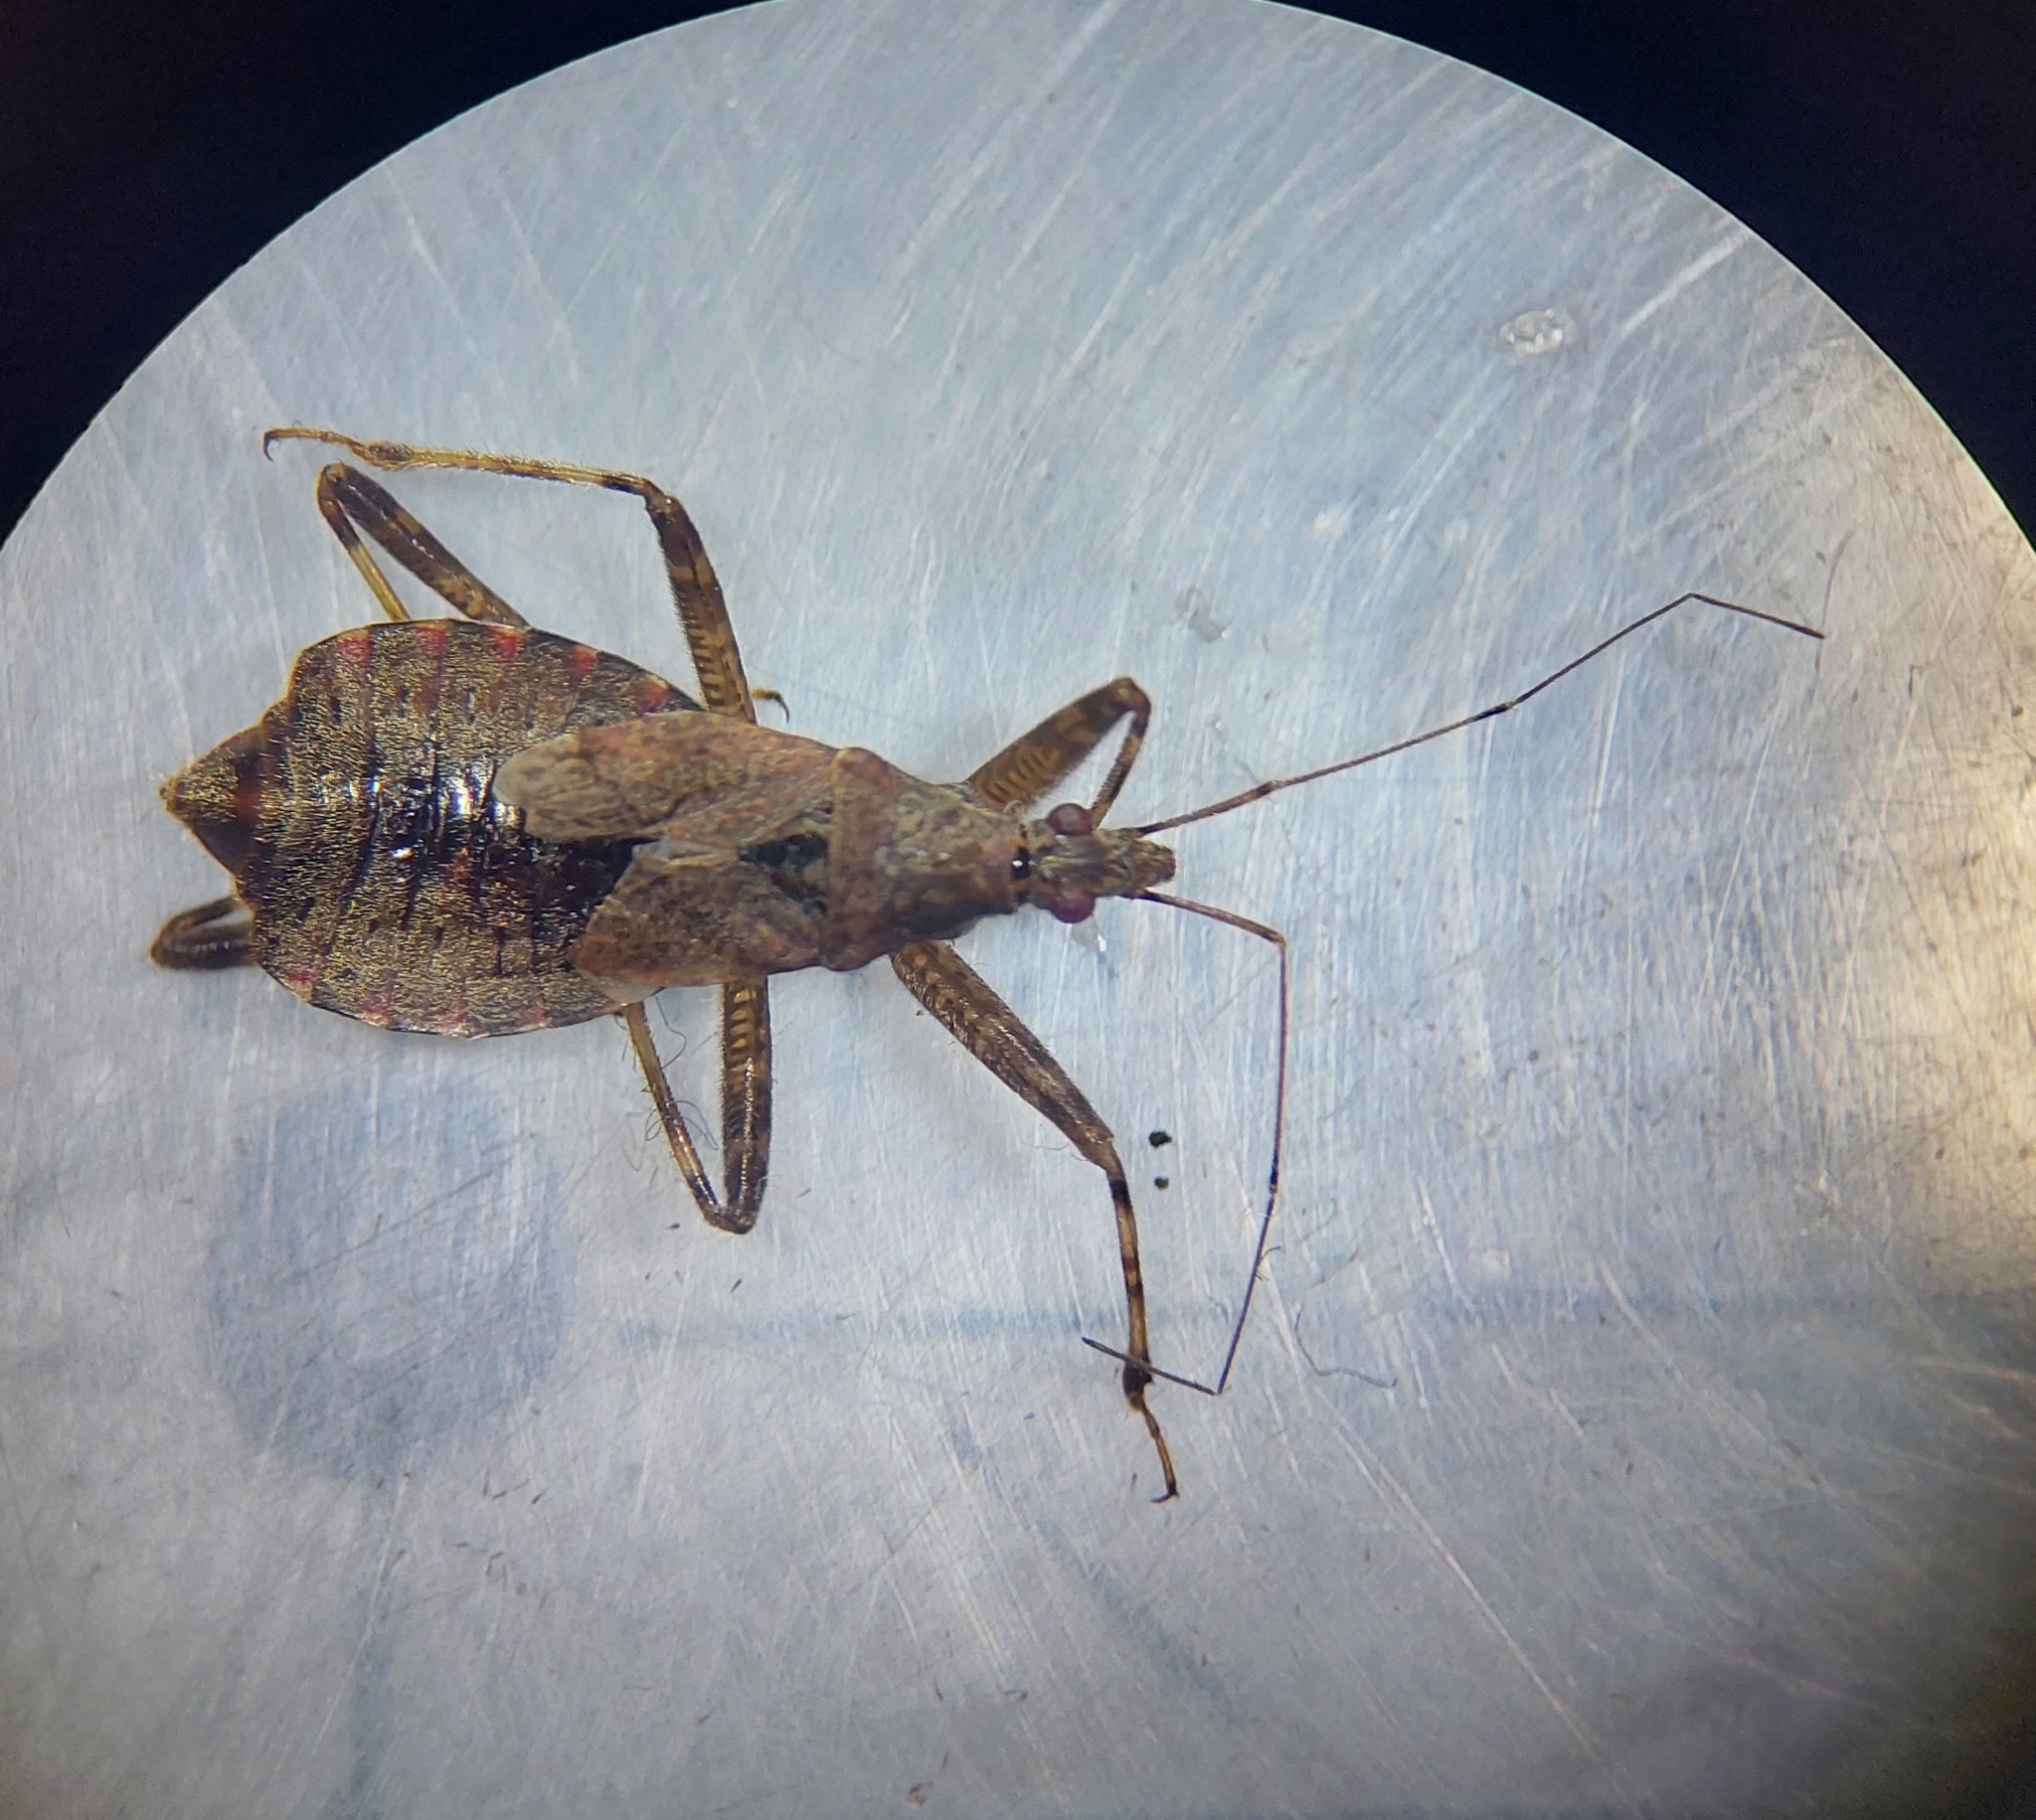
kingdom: Animalia
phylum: Arthropoda
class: Insecta
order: Hemiptera
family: Nabidae
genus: Himacerus
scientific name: Himacerus apterus
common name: Tree damsel bug
